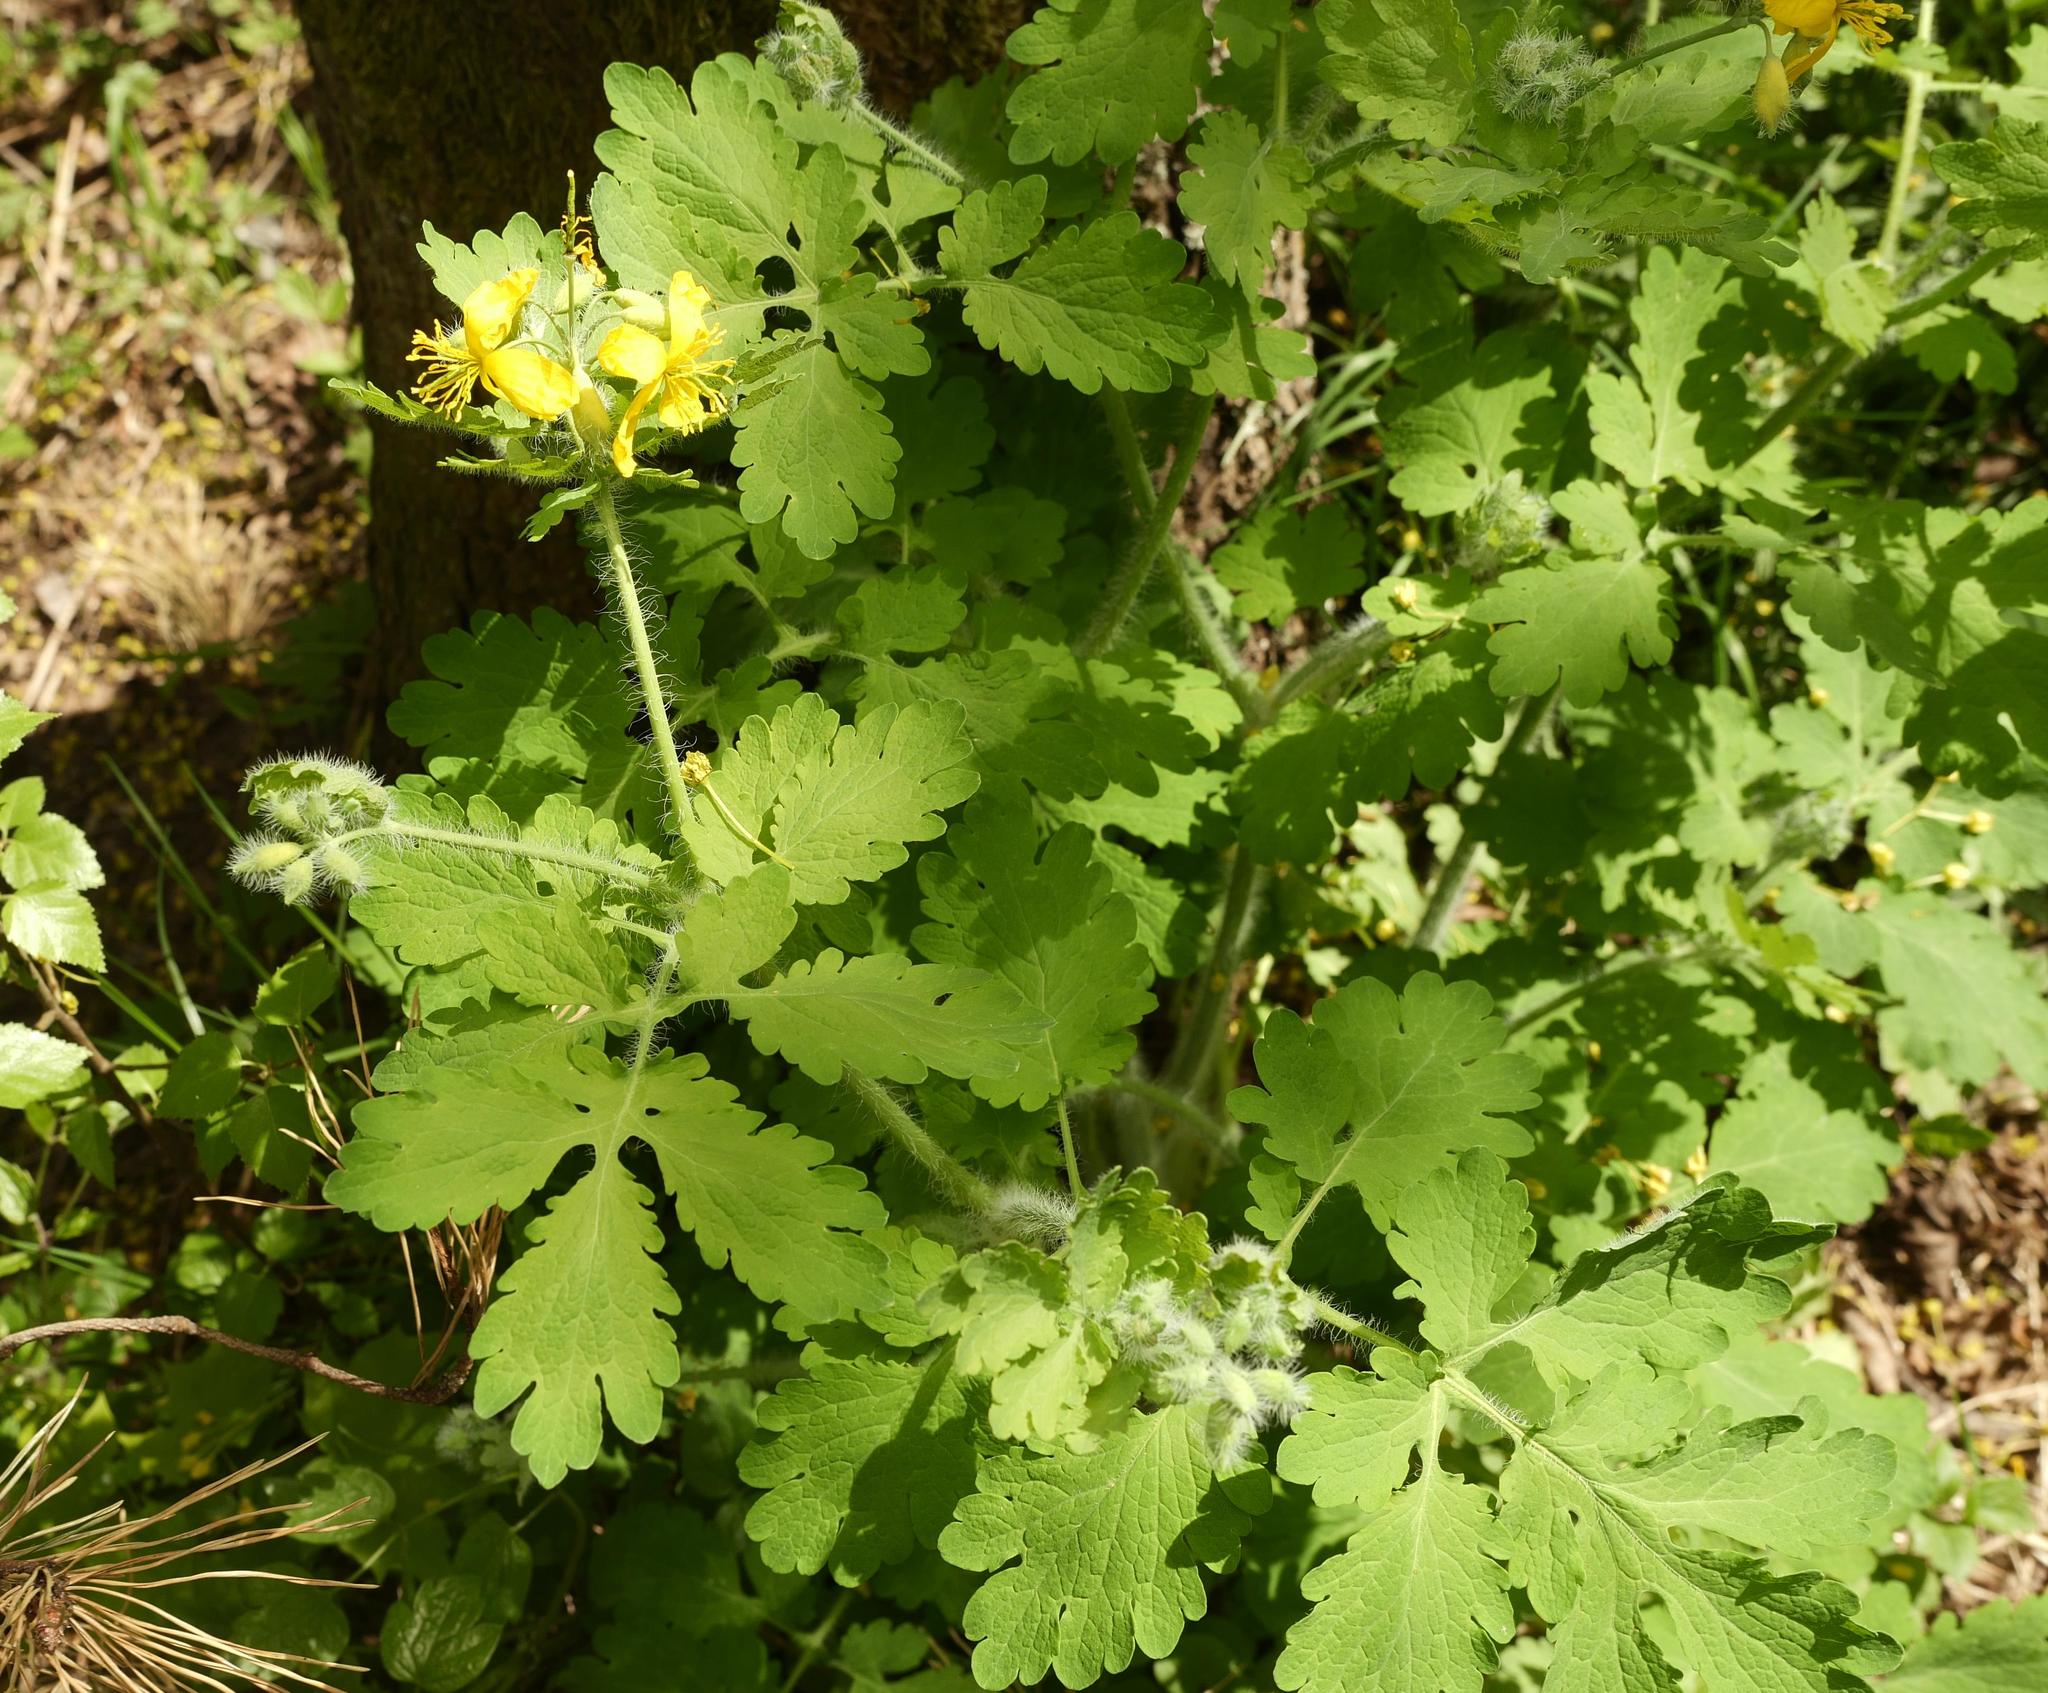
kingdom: Plantae
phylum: Tracheophyta
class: Magnoliopsida
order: Ranunculales
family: Papaveraceae
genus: Chelidonium
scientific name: Chelidonium majus
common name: Greater celandine
